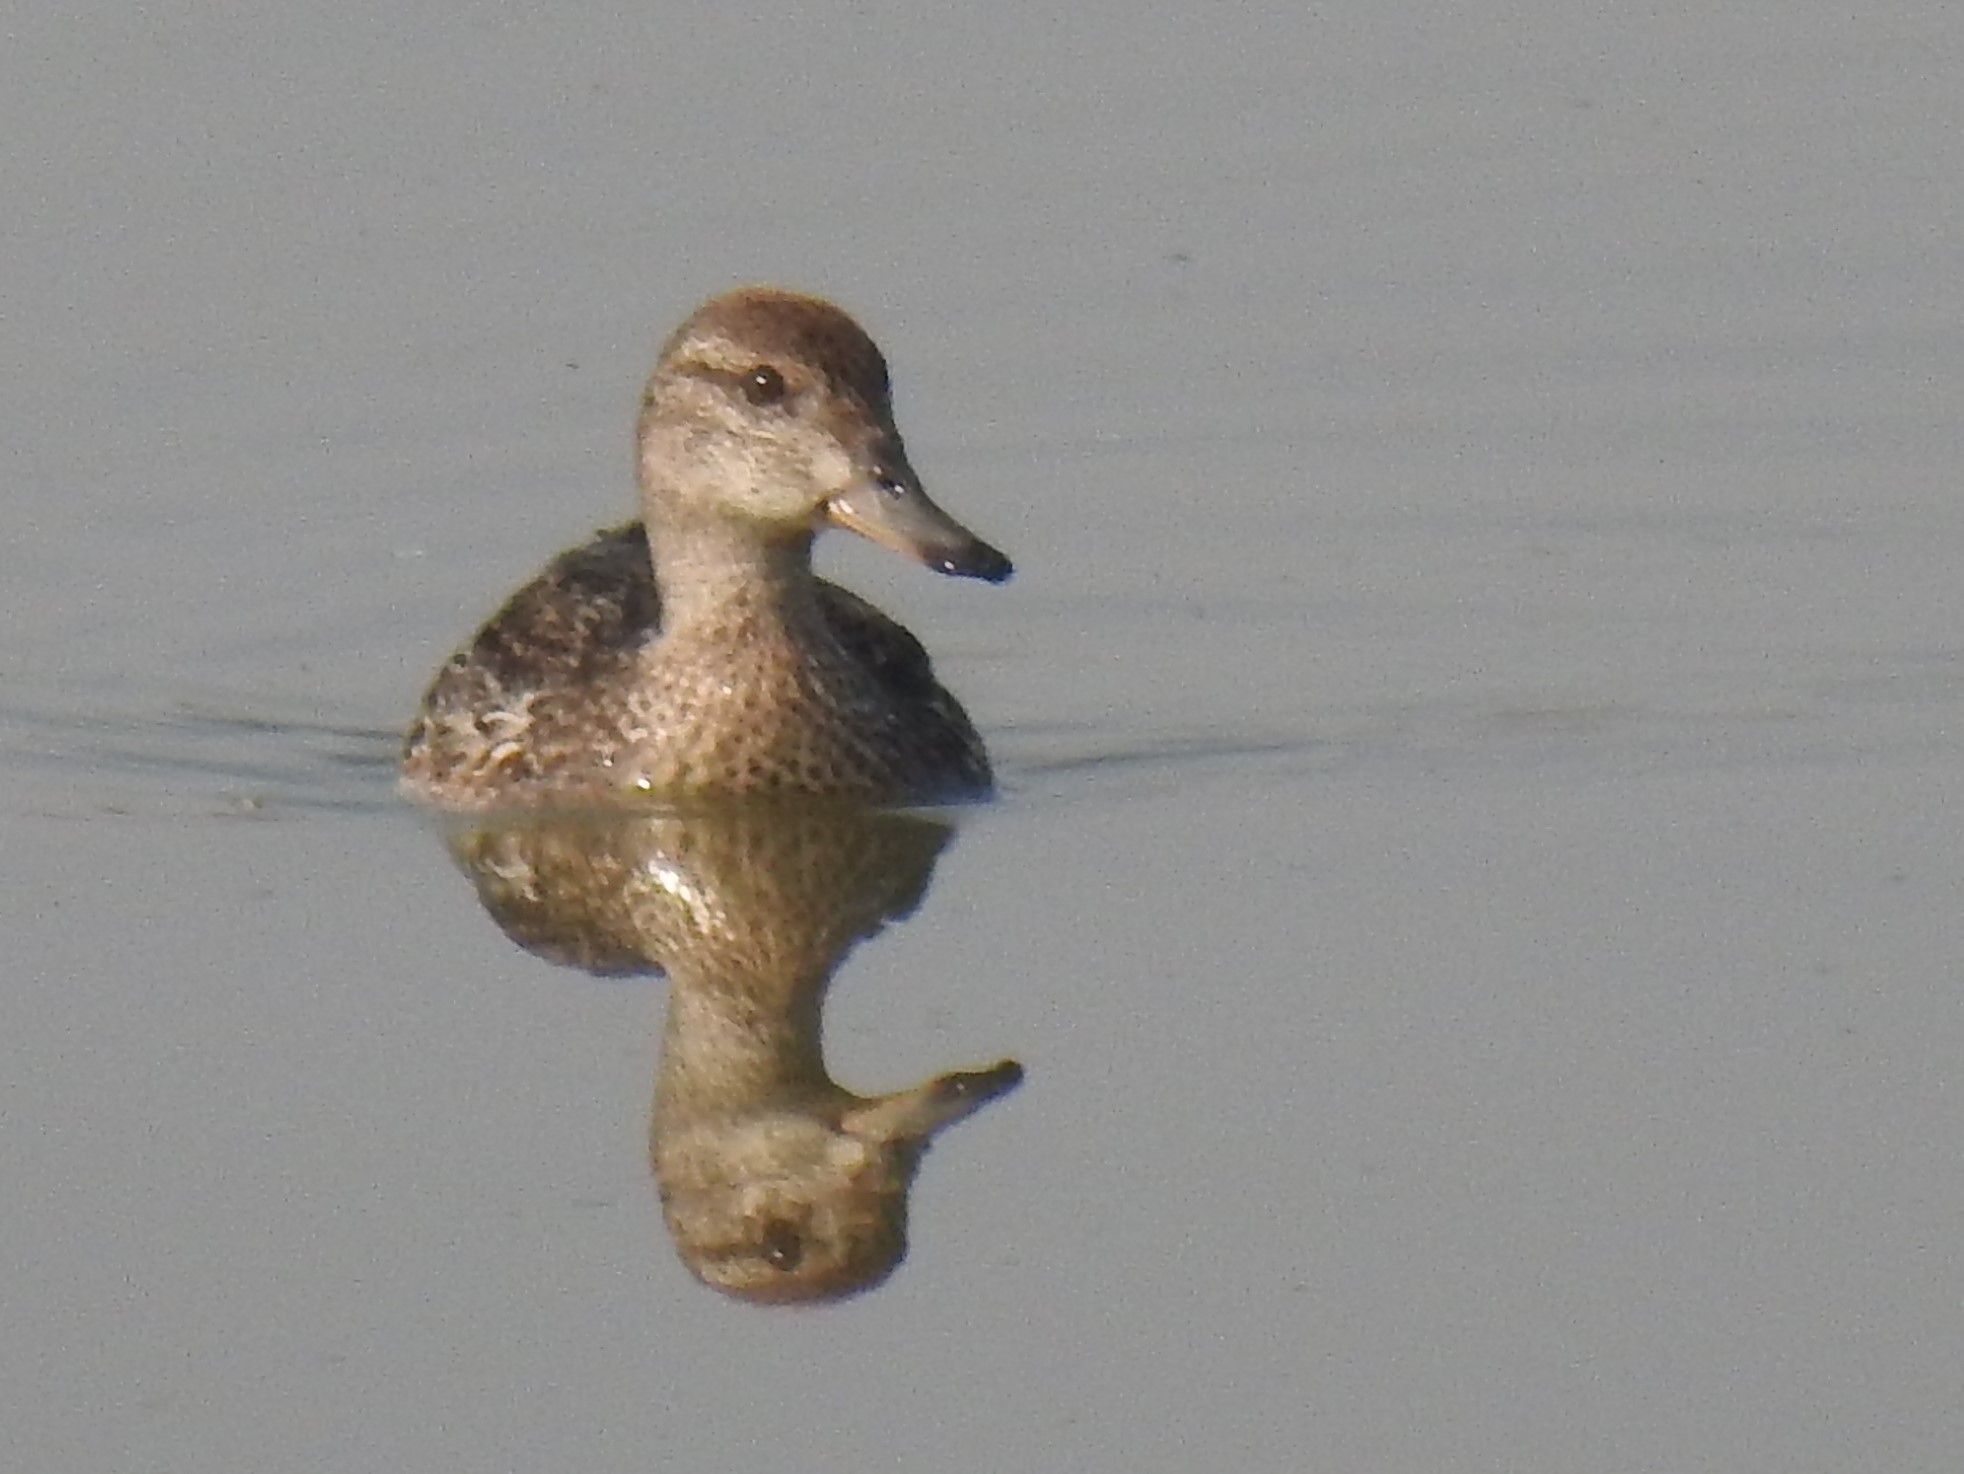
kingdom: Animalia
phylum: Chordata
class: Aves
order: Anseriformes
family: Anatidae
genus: Anas
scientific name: Anas crecca
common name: Eurasian teal
